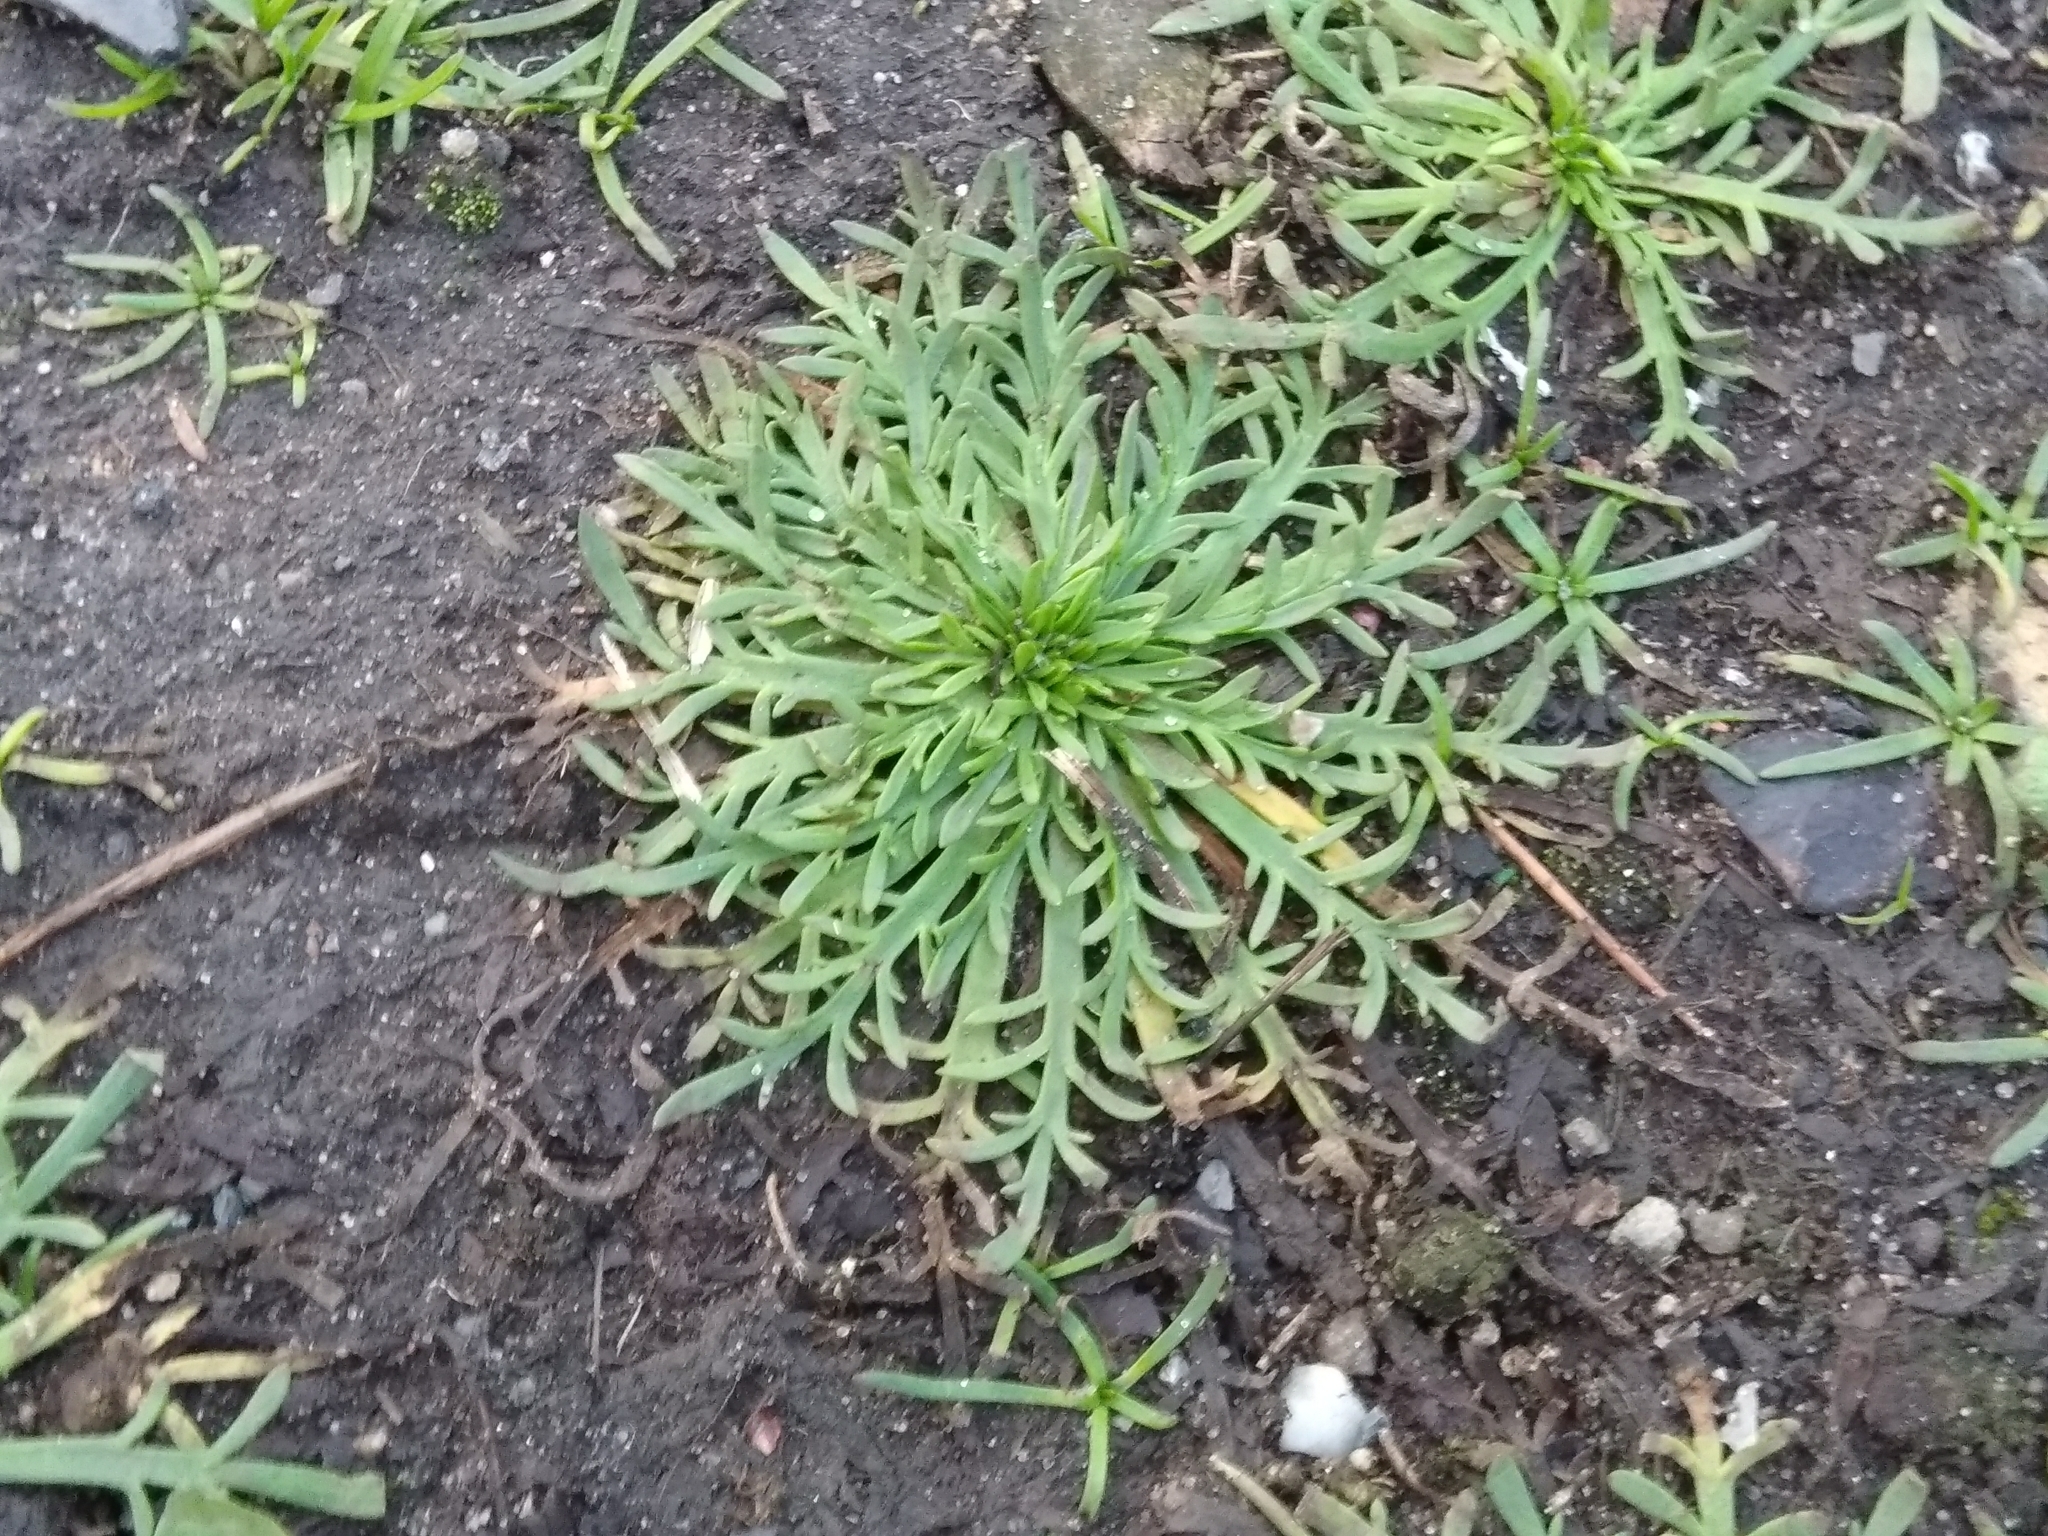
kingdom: Plantae
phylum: Tracheophyta
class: Magnoliopsida
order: Lamiales
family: Plantaginaceae
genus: Plantago
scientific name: Plantago coronopus
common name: Buck's-horn plantain
